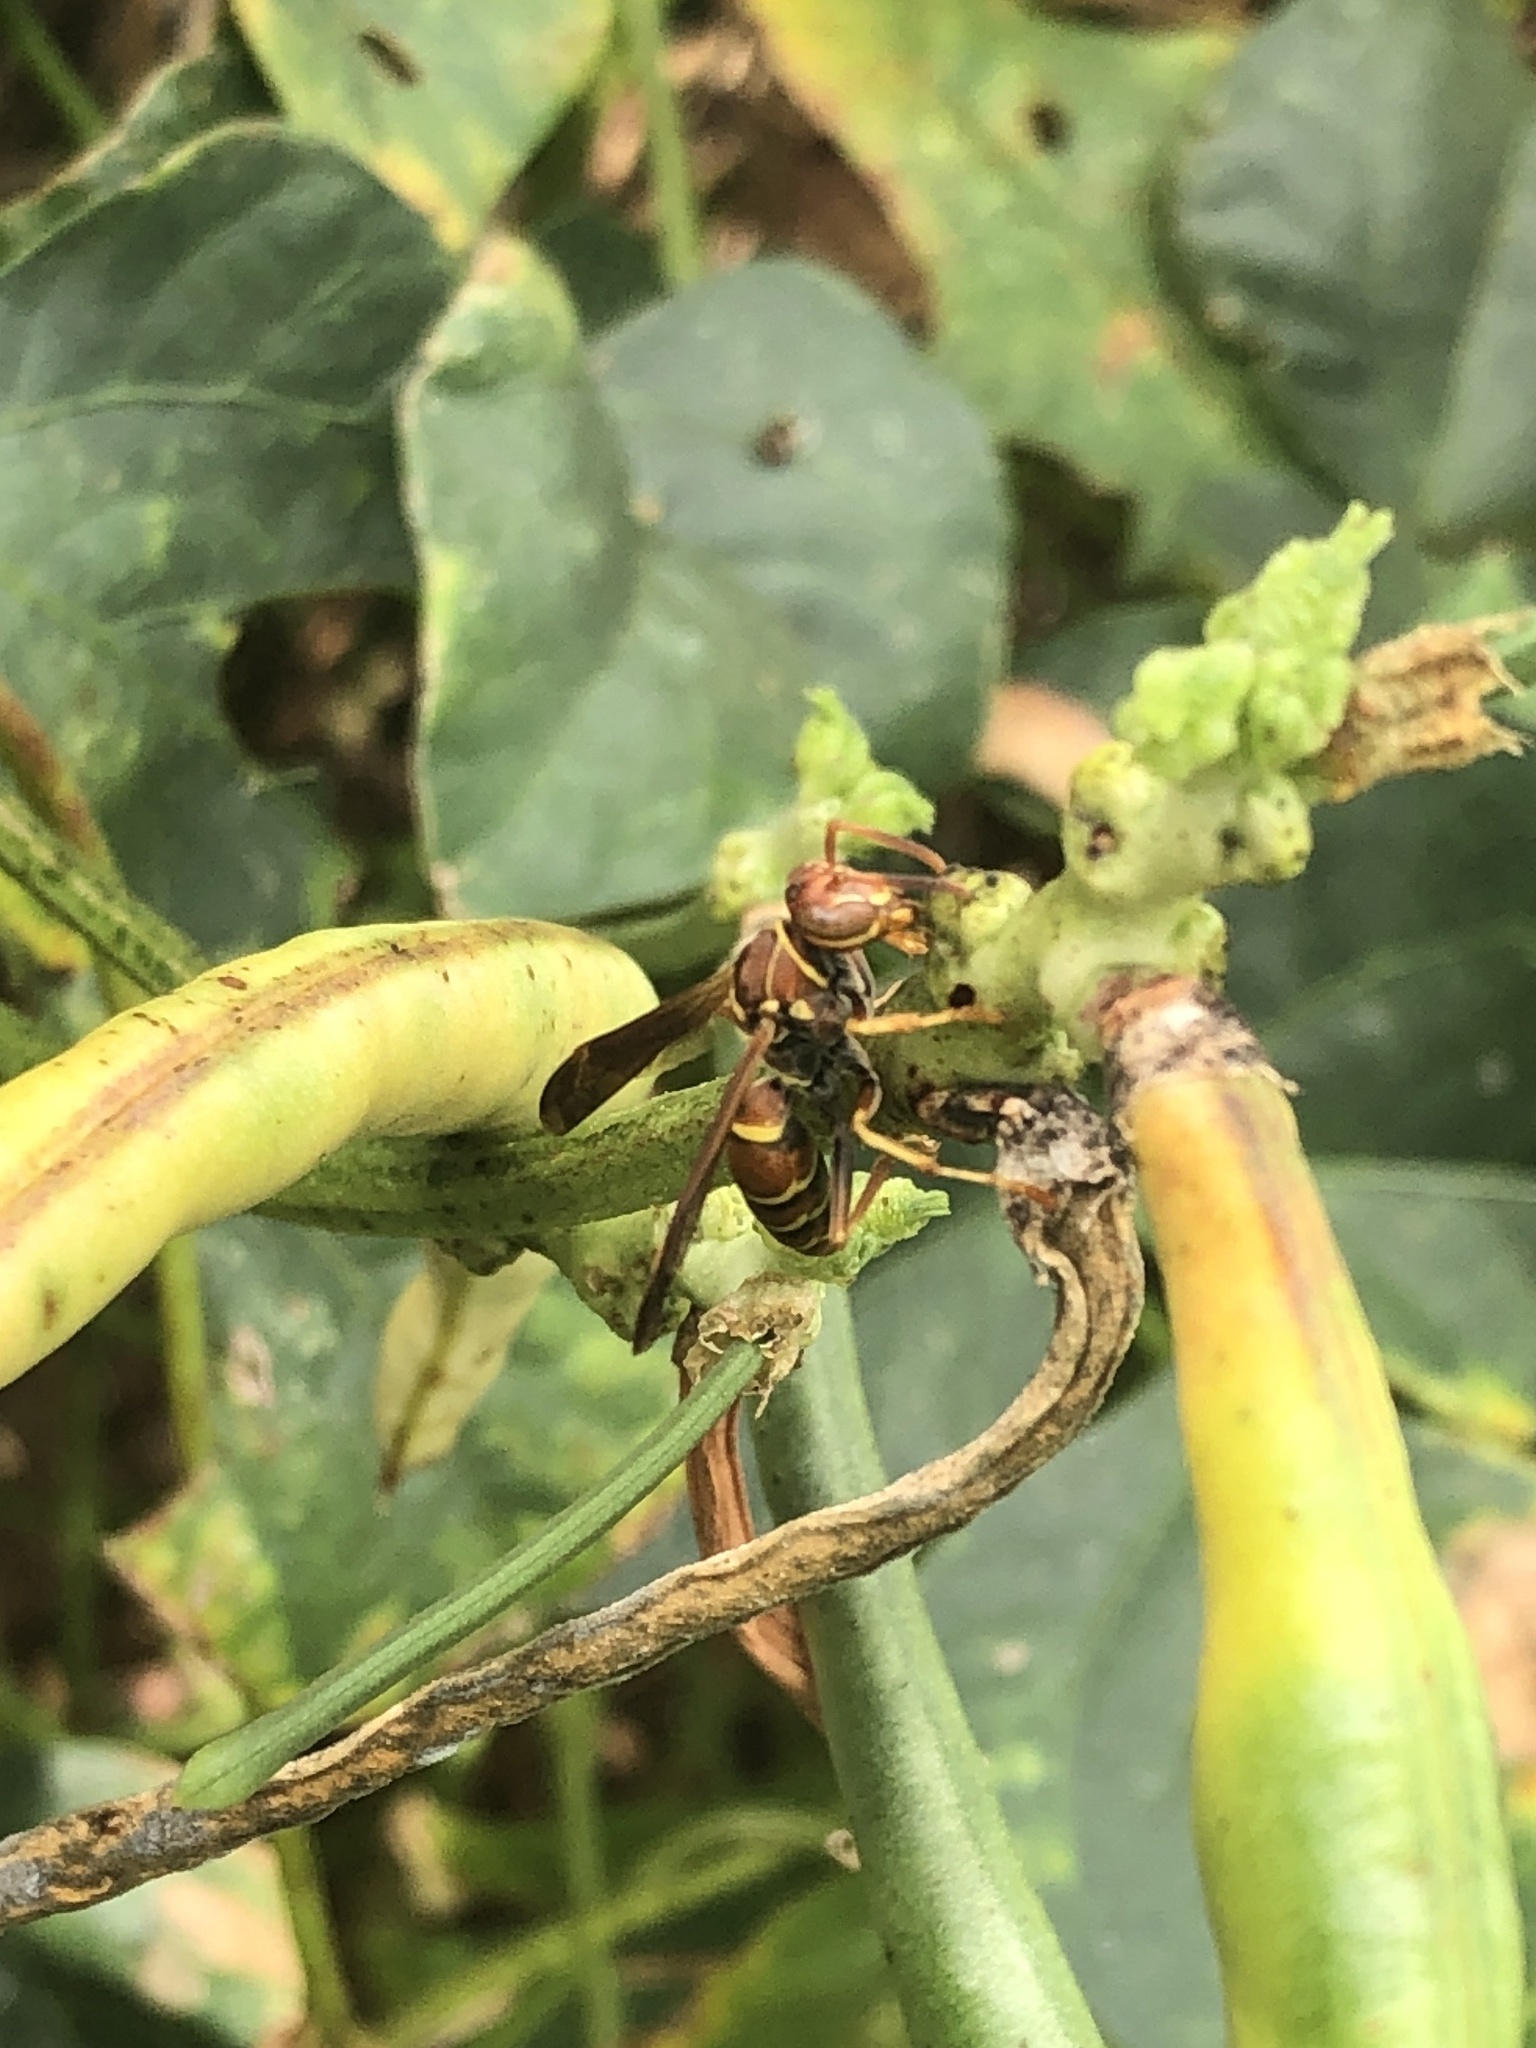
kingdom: Animalia
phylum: Arthropoda
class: Insecta
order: Hymenoptera
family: Eumenidae
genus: Polistes
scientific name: Polistes dorsalis
